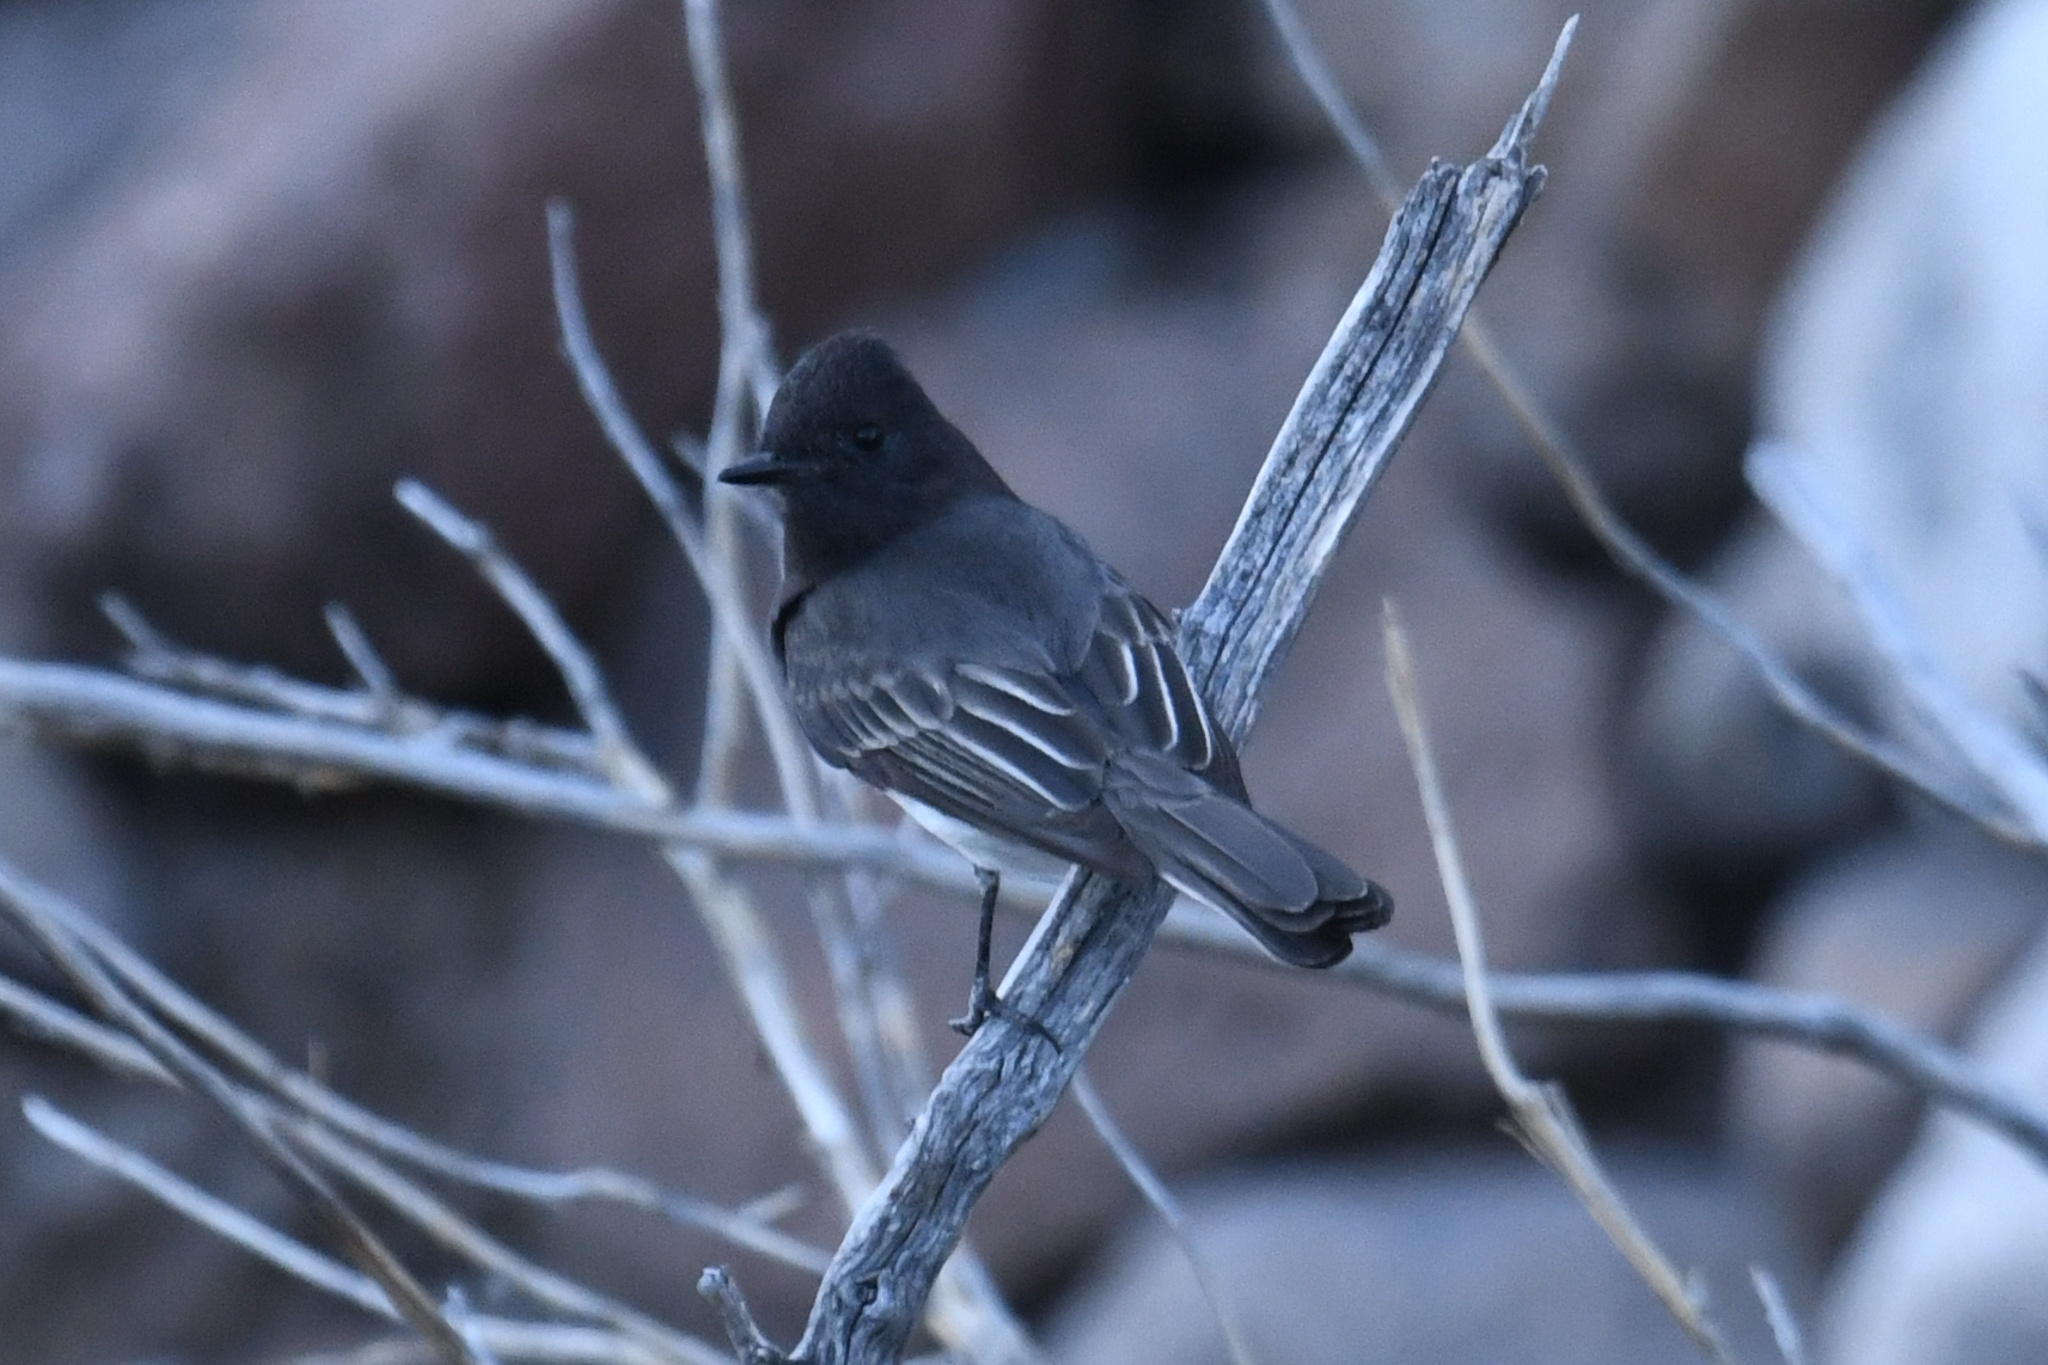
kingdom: Animalia
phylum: Chordata
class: Aves
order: Passeriformes
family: Tyrannidae
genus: Sayornis
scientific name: Sayornis nigricans
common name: Black phoebe
